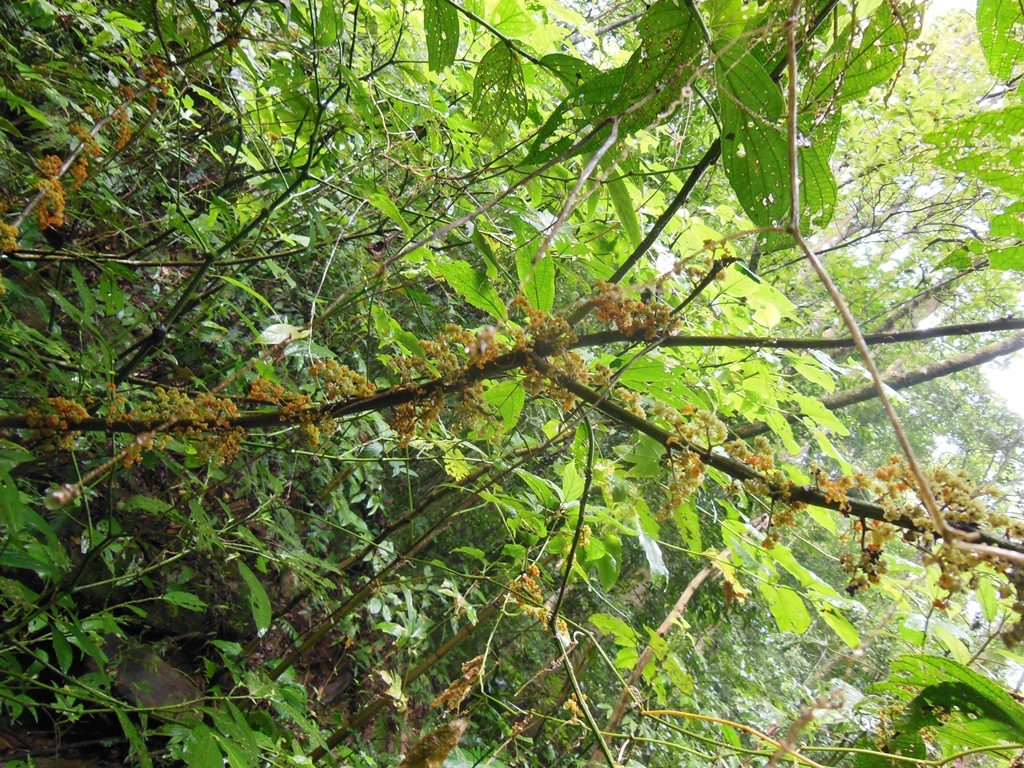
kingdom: Plantae
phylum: Tracheophyta
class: Magnoliopsida
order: Rosales
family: Urticaceae
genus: Urera
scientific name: Urera caracasana
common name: Flameberry
